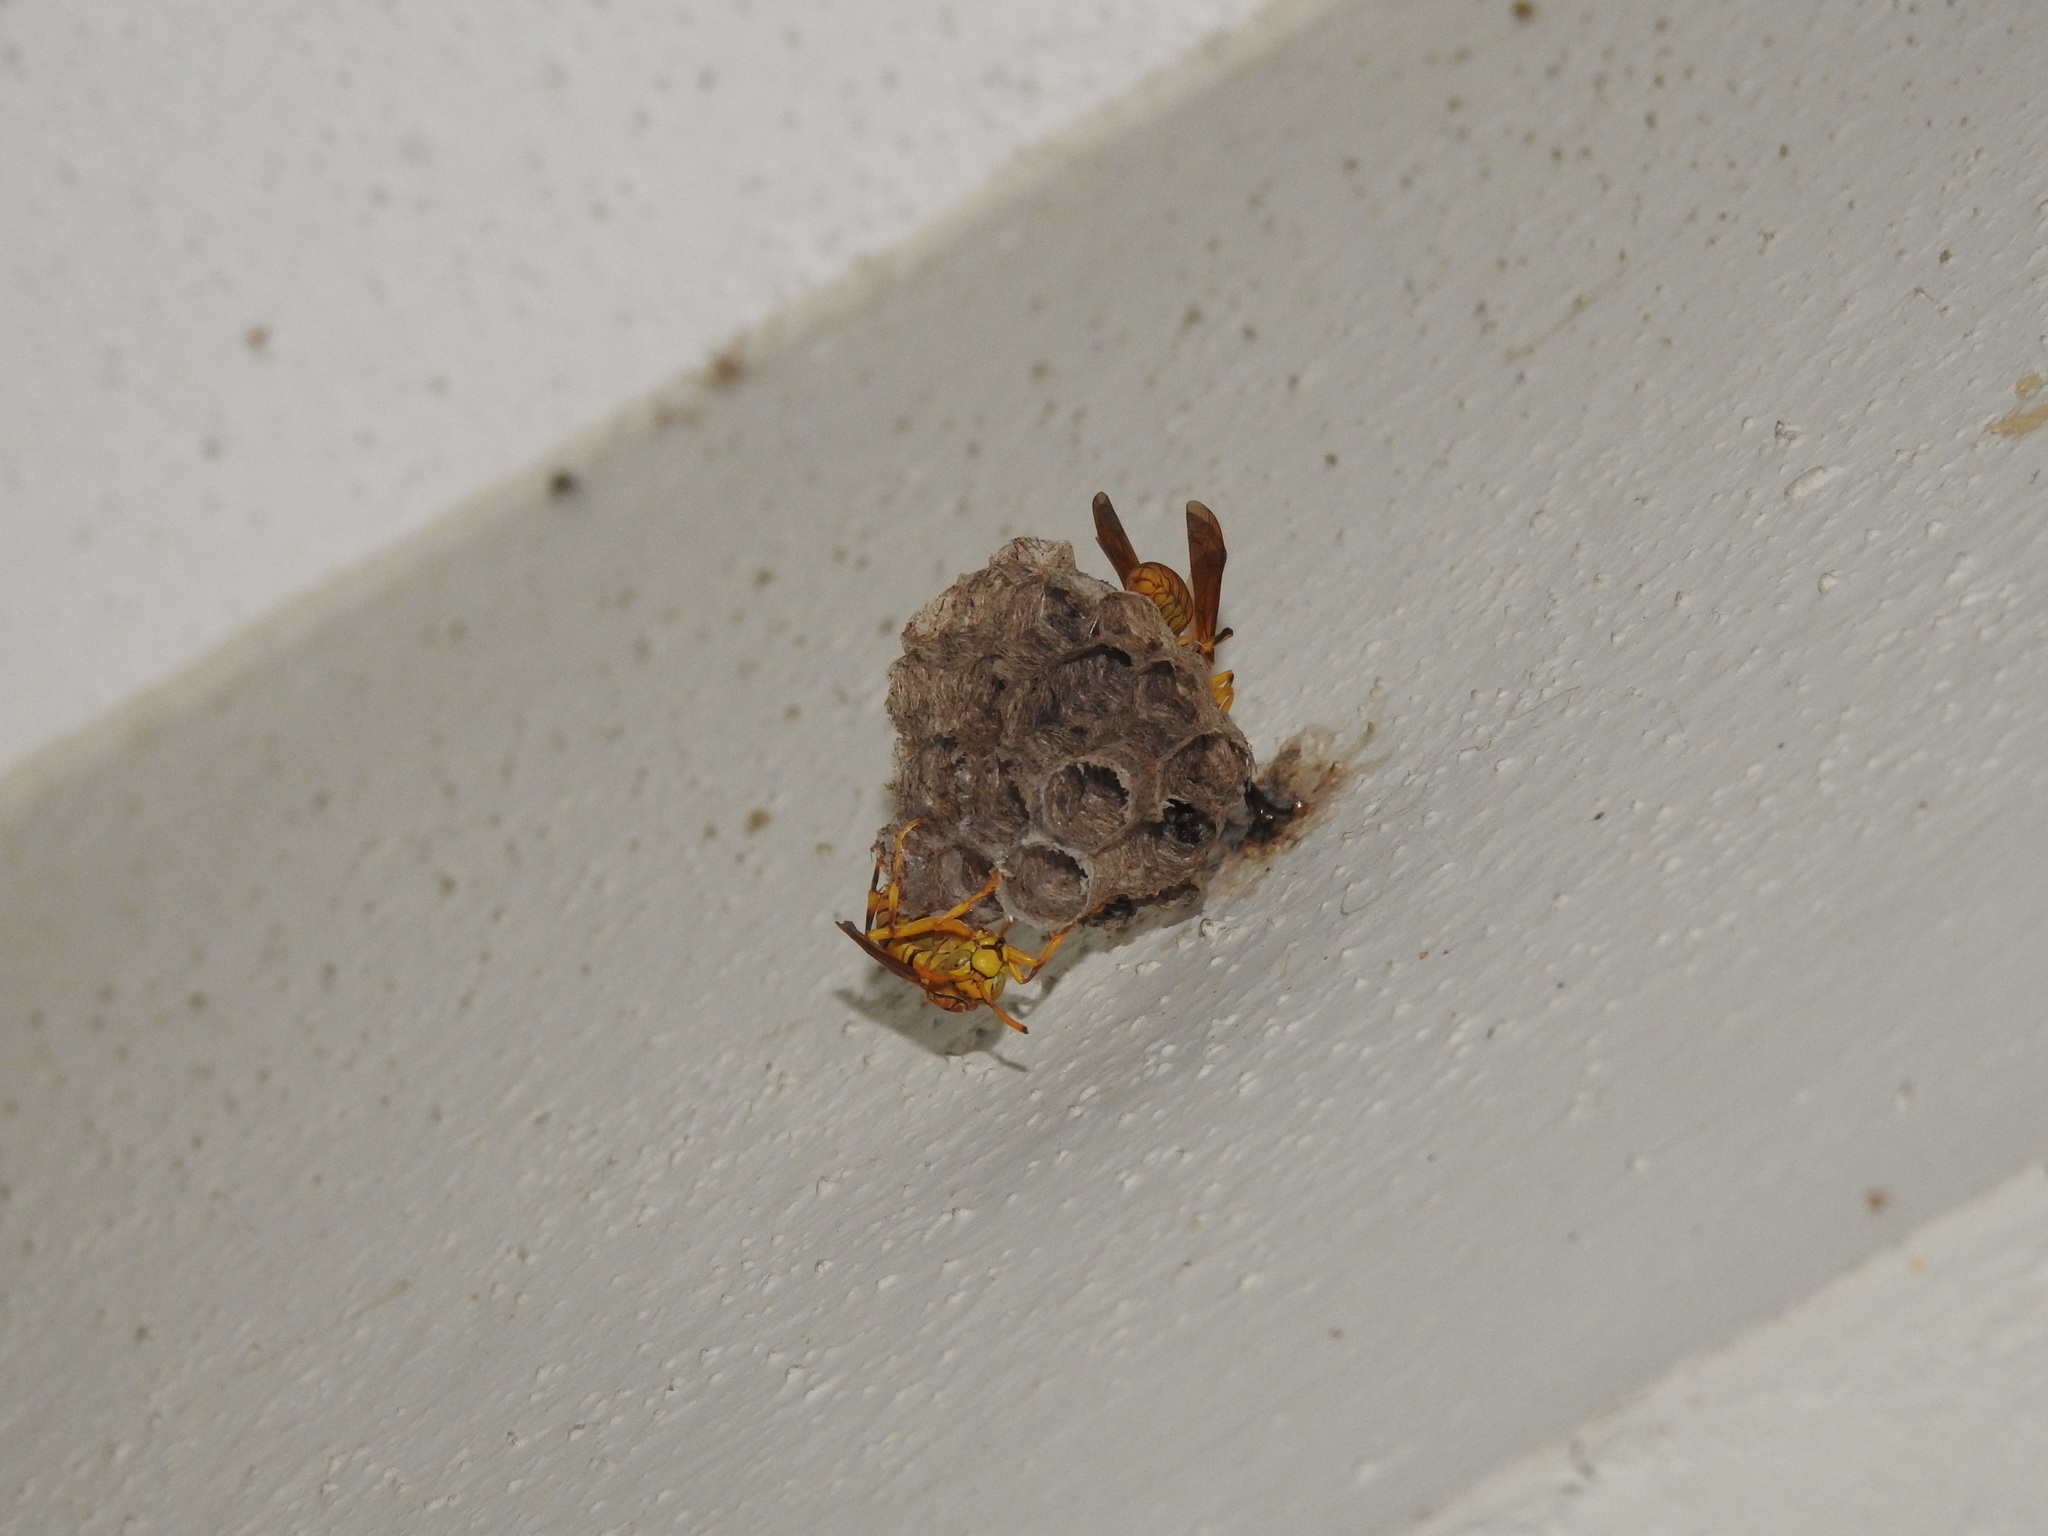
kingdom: Animalia
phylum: Arthropoda
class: Insecta
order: Hymenoptera
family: Eumenidae
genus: Polistes
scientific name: Polistes olivaceus
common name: Paper wasp
